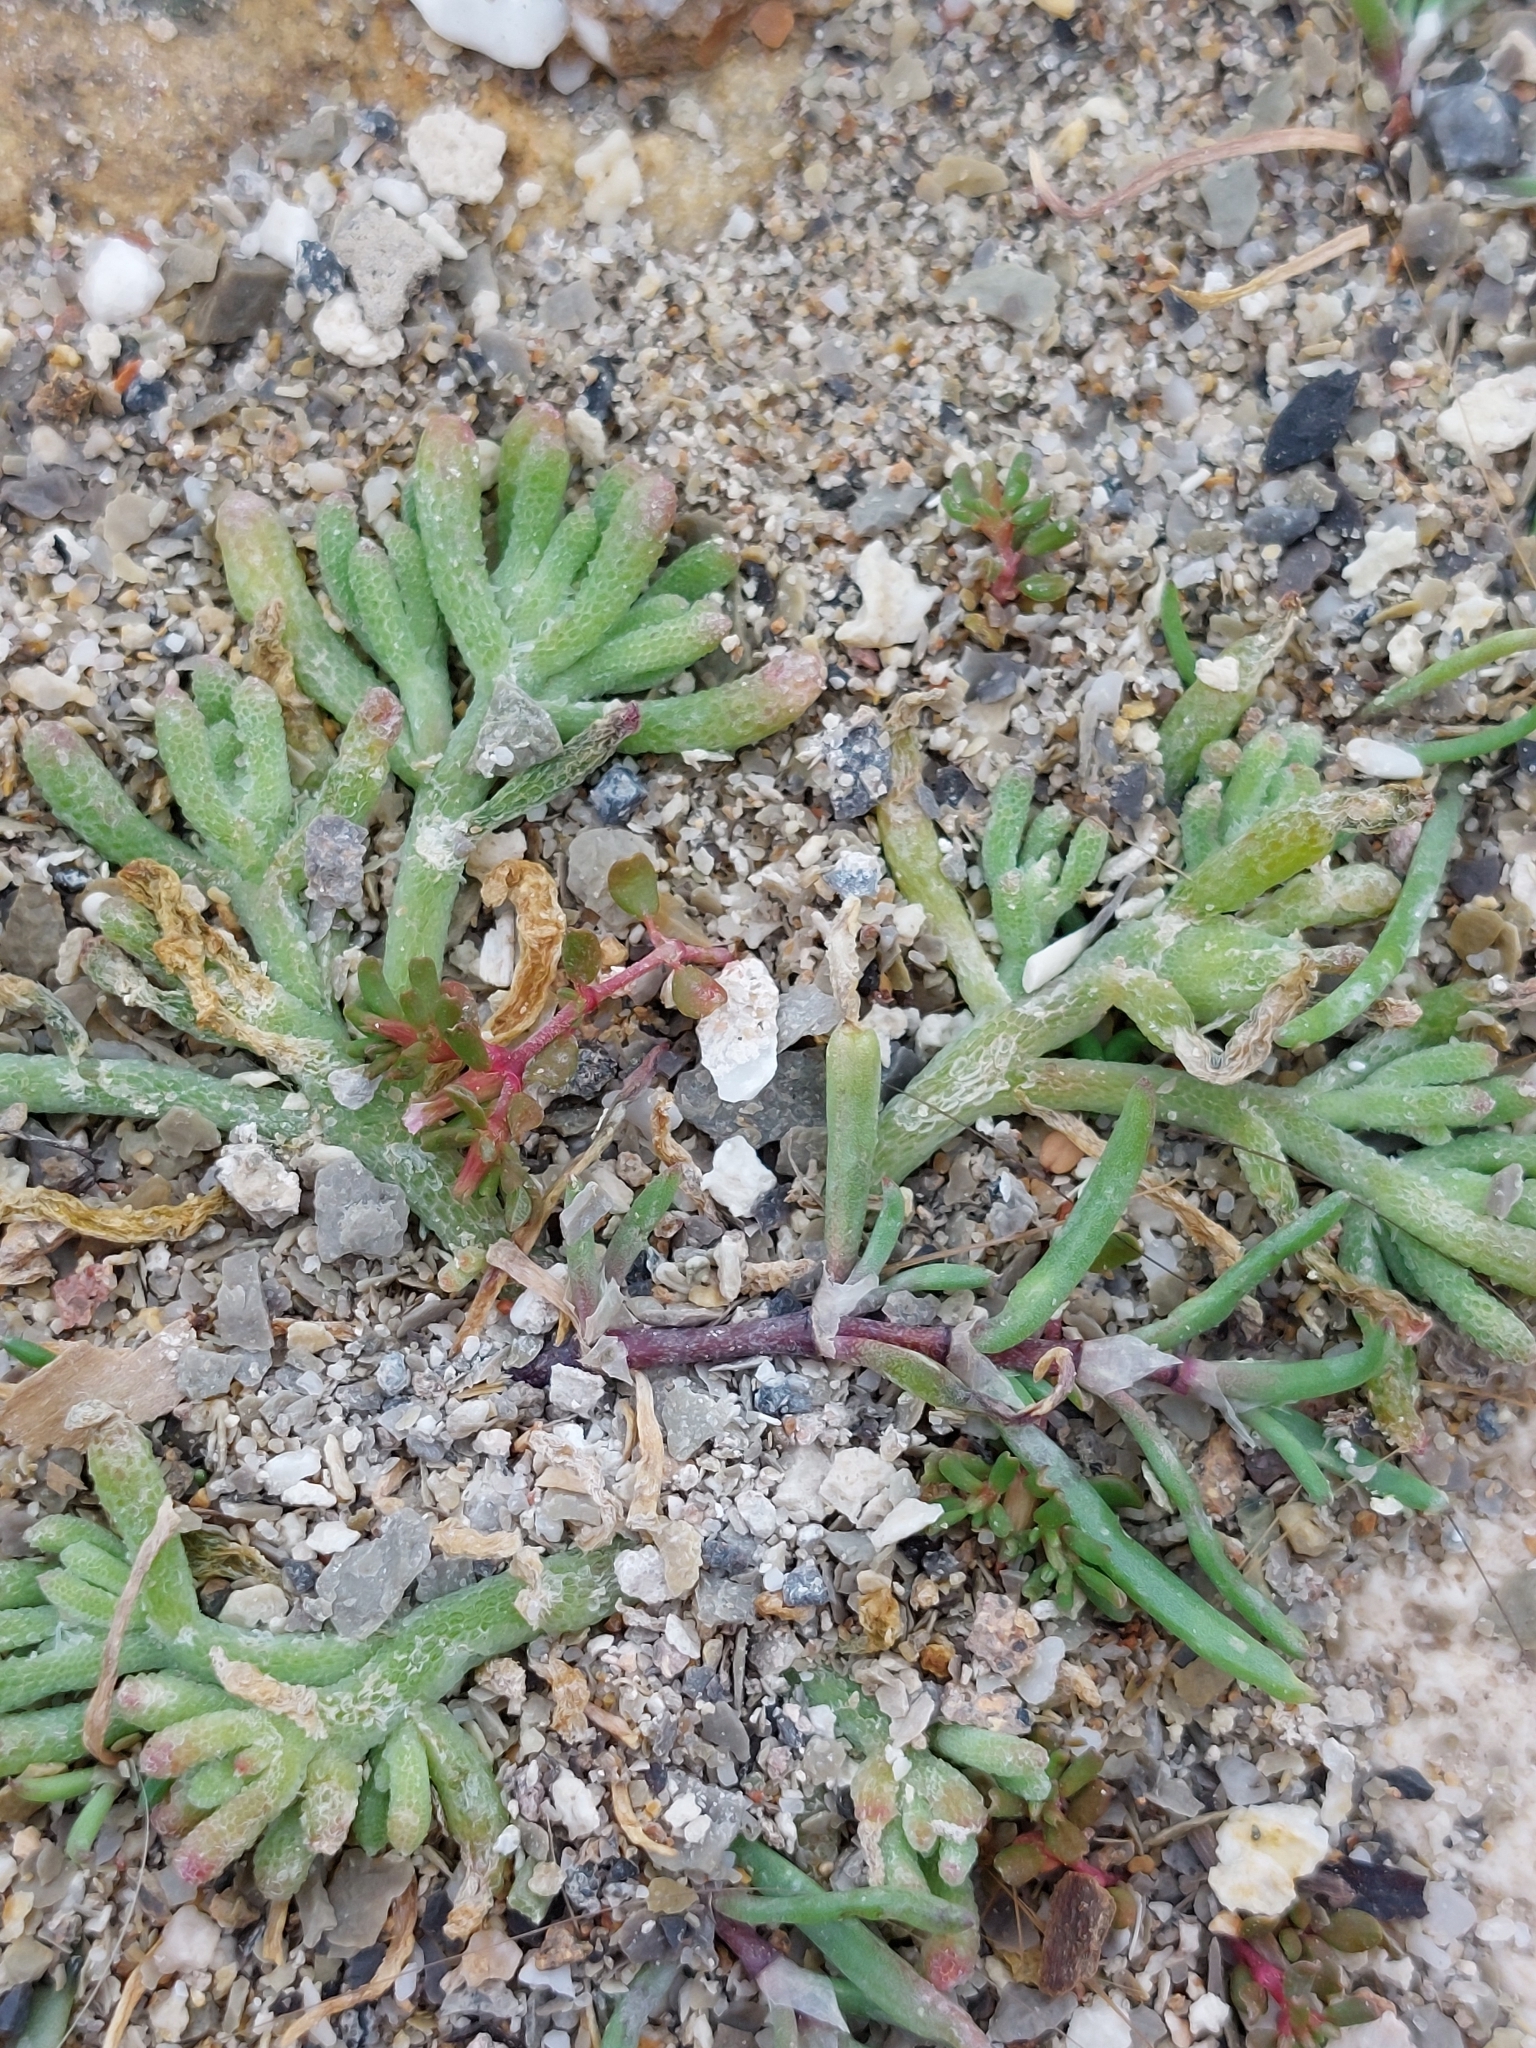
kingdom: Plantae
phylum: Tracheophyta
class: Magnoliopsida
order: Caryophyllales
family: Aizoaceae
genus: Mesembryanthemum
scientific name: Mesembryanthemum nodiflorum
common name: Slenderleaf iceplant
